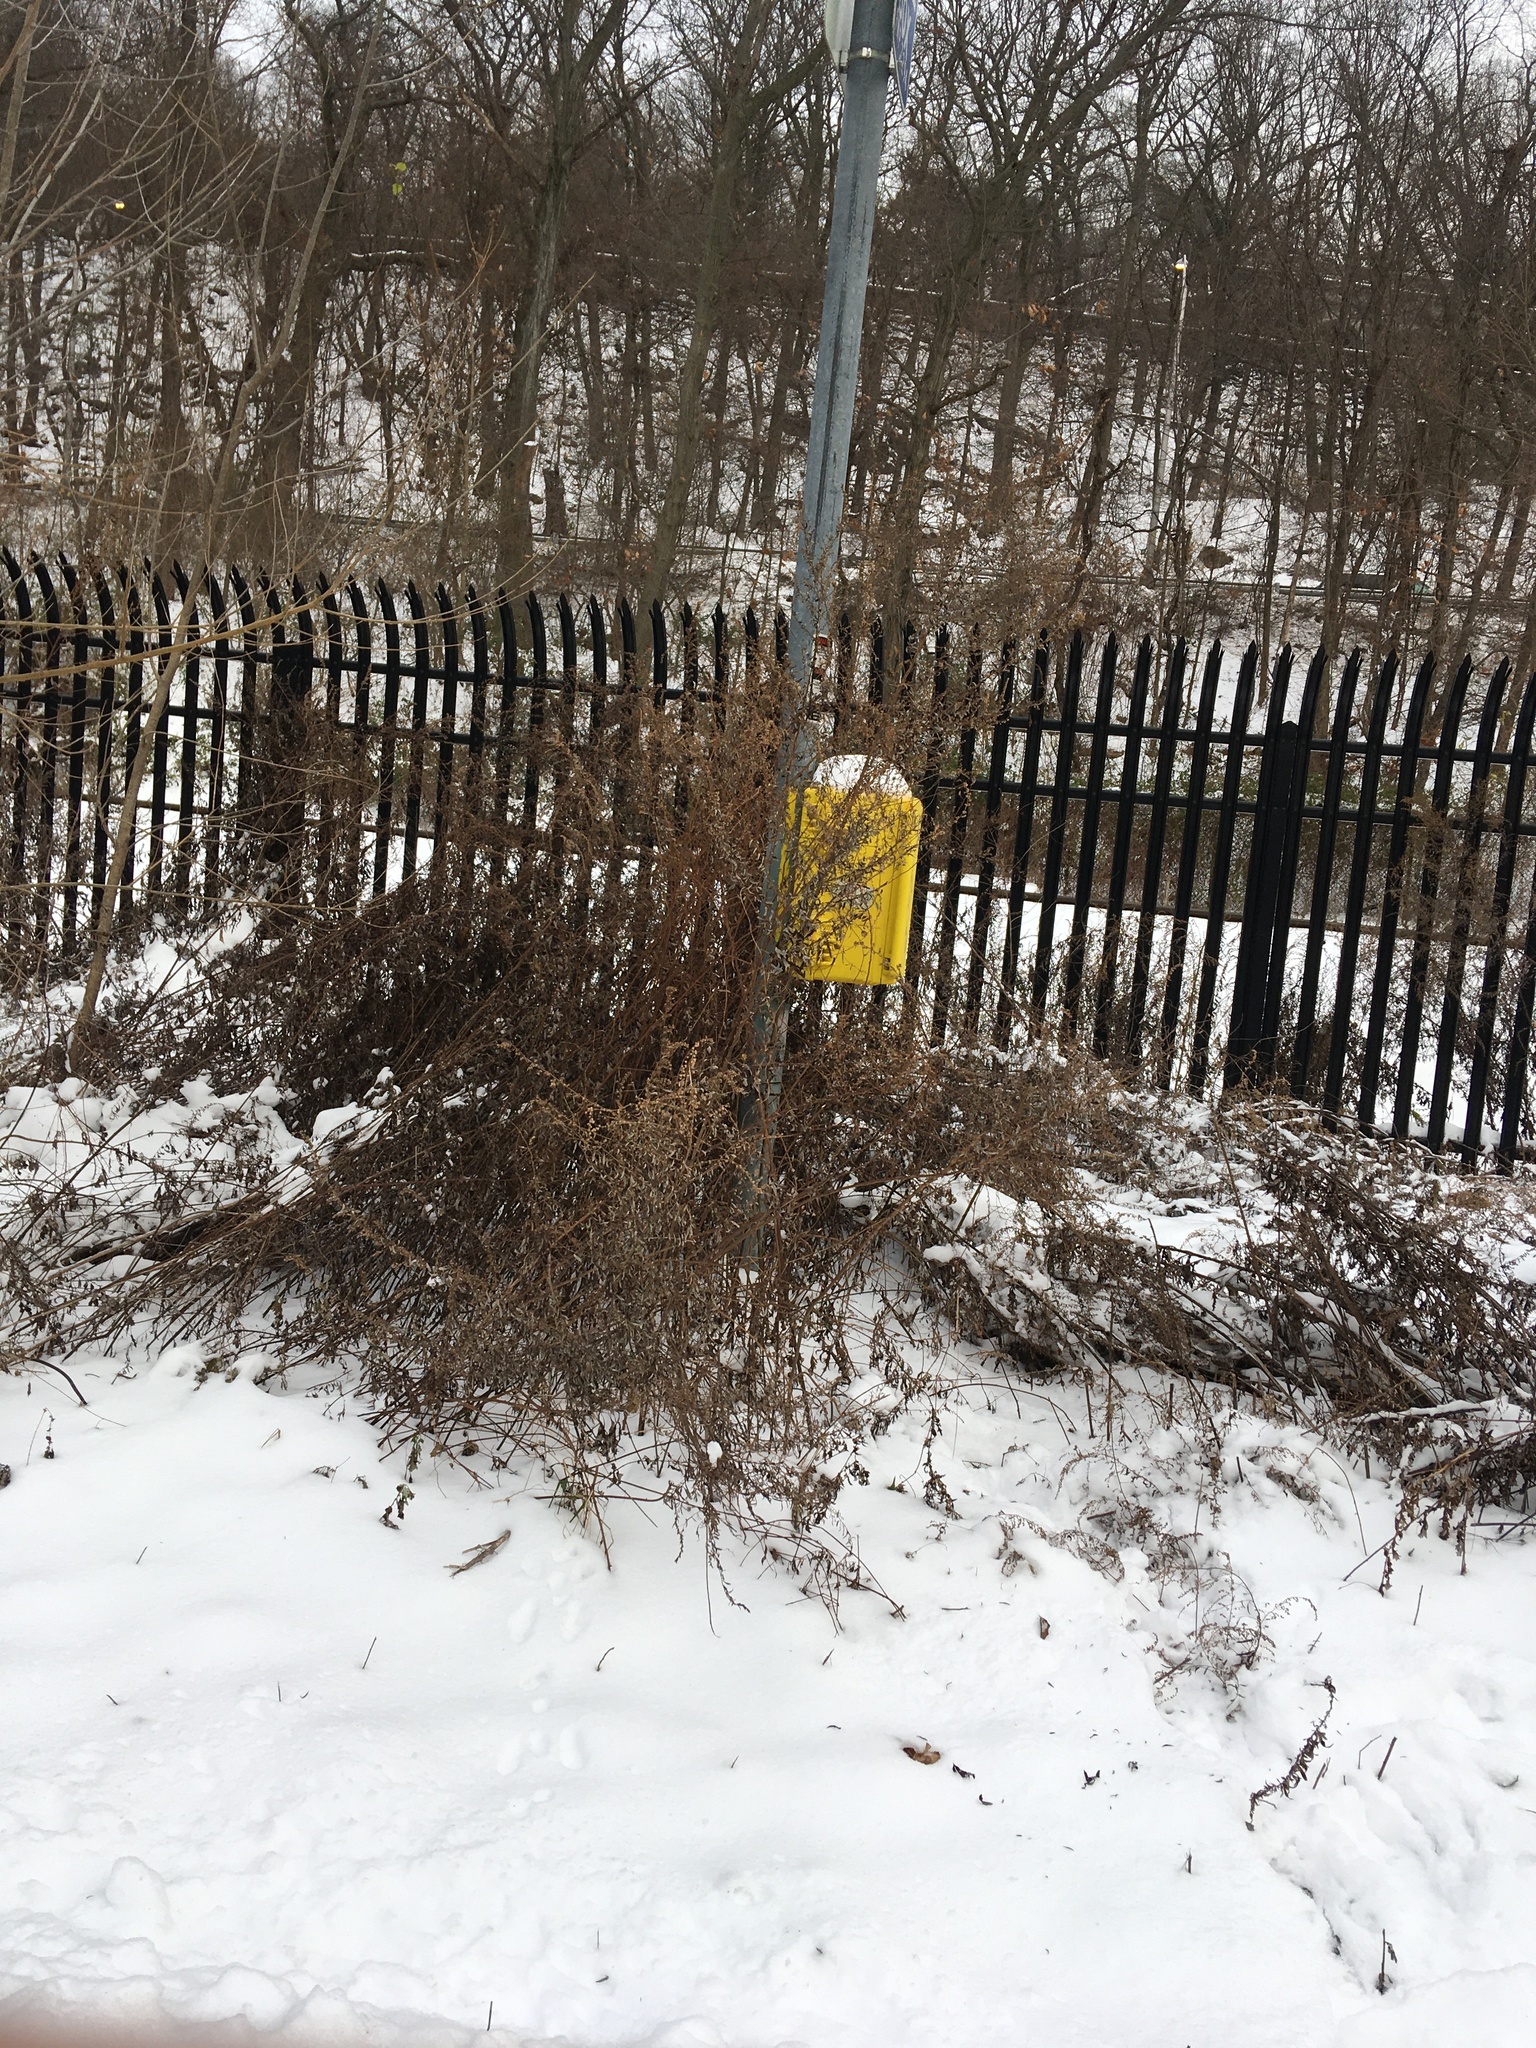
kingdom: Plantae
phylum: Tracheophyta
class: Magnoliopsida
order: Asterales
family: Asteraceae
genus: Artemisia
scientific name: Artemisia vulgaris
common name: Mugwort
